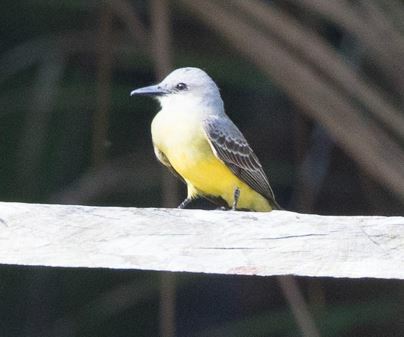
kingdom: Animalia
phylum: Chordata
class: Aves
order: Passeriformes
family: Tyrannidae
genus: Tyrannus
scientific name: Tyrannus melancholicus
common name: Tropical kingbird
